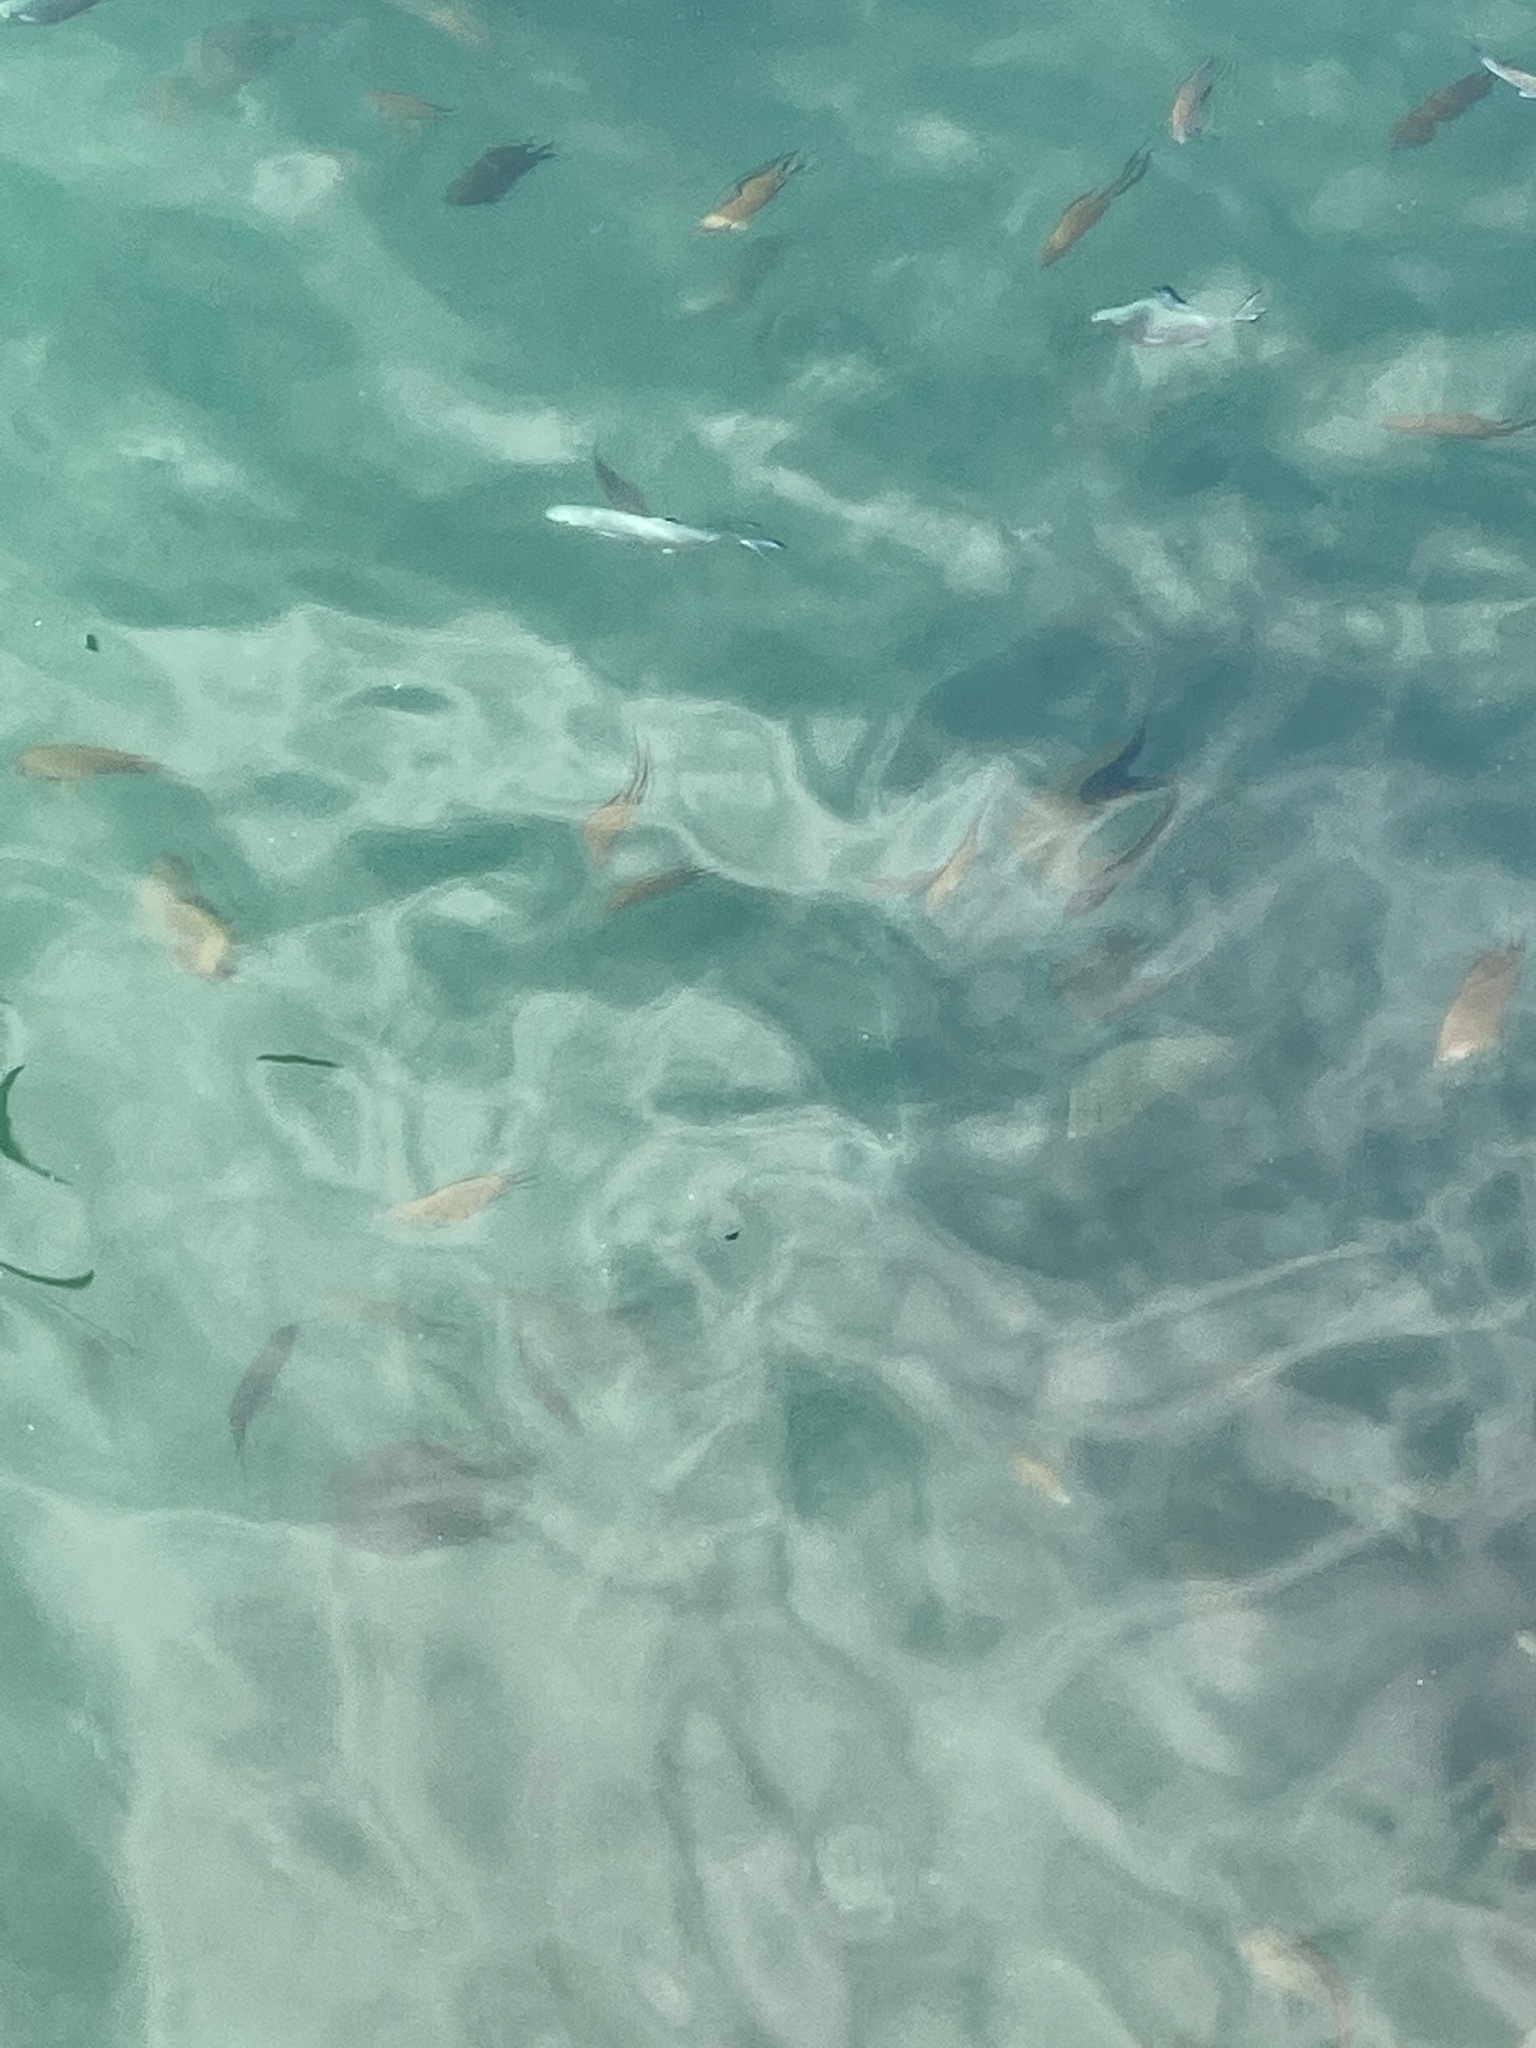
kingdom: Animalia
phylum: Chordata
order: Perciformes
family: Carangidae
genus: Trachinotus
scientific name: Trachinotus ovatus
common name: Pompano
